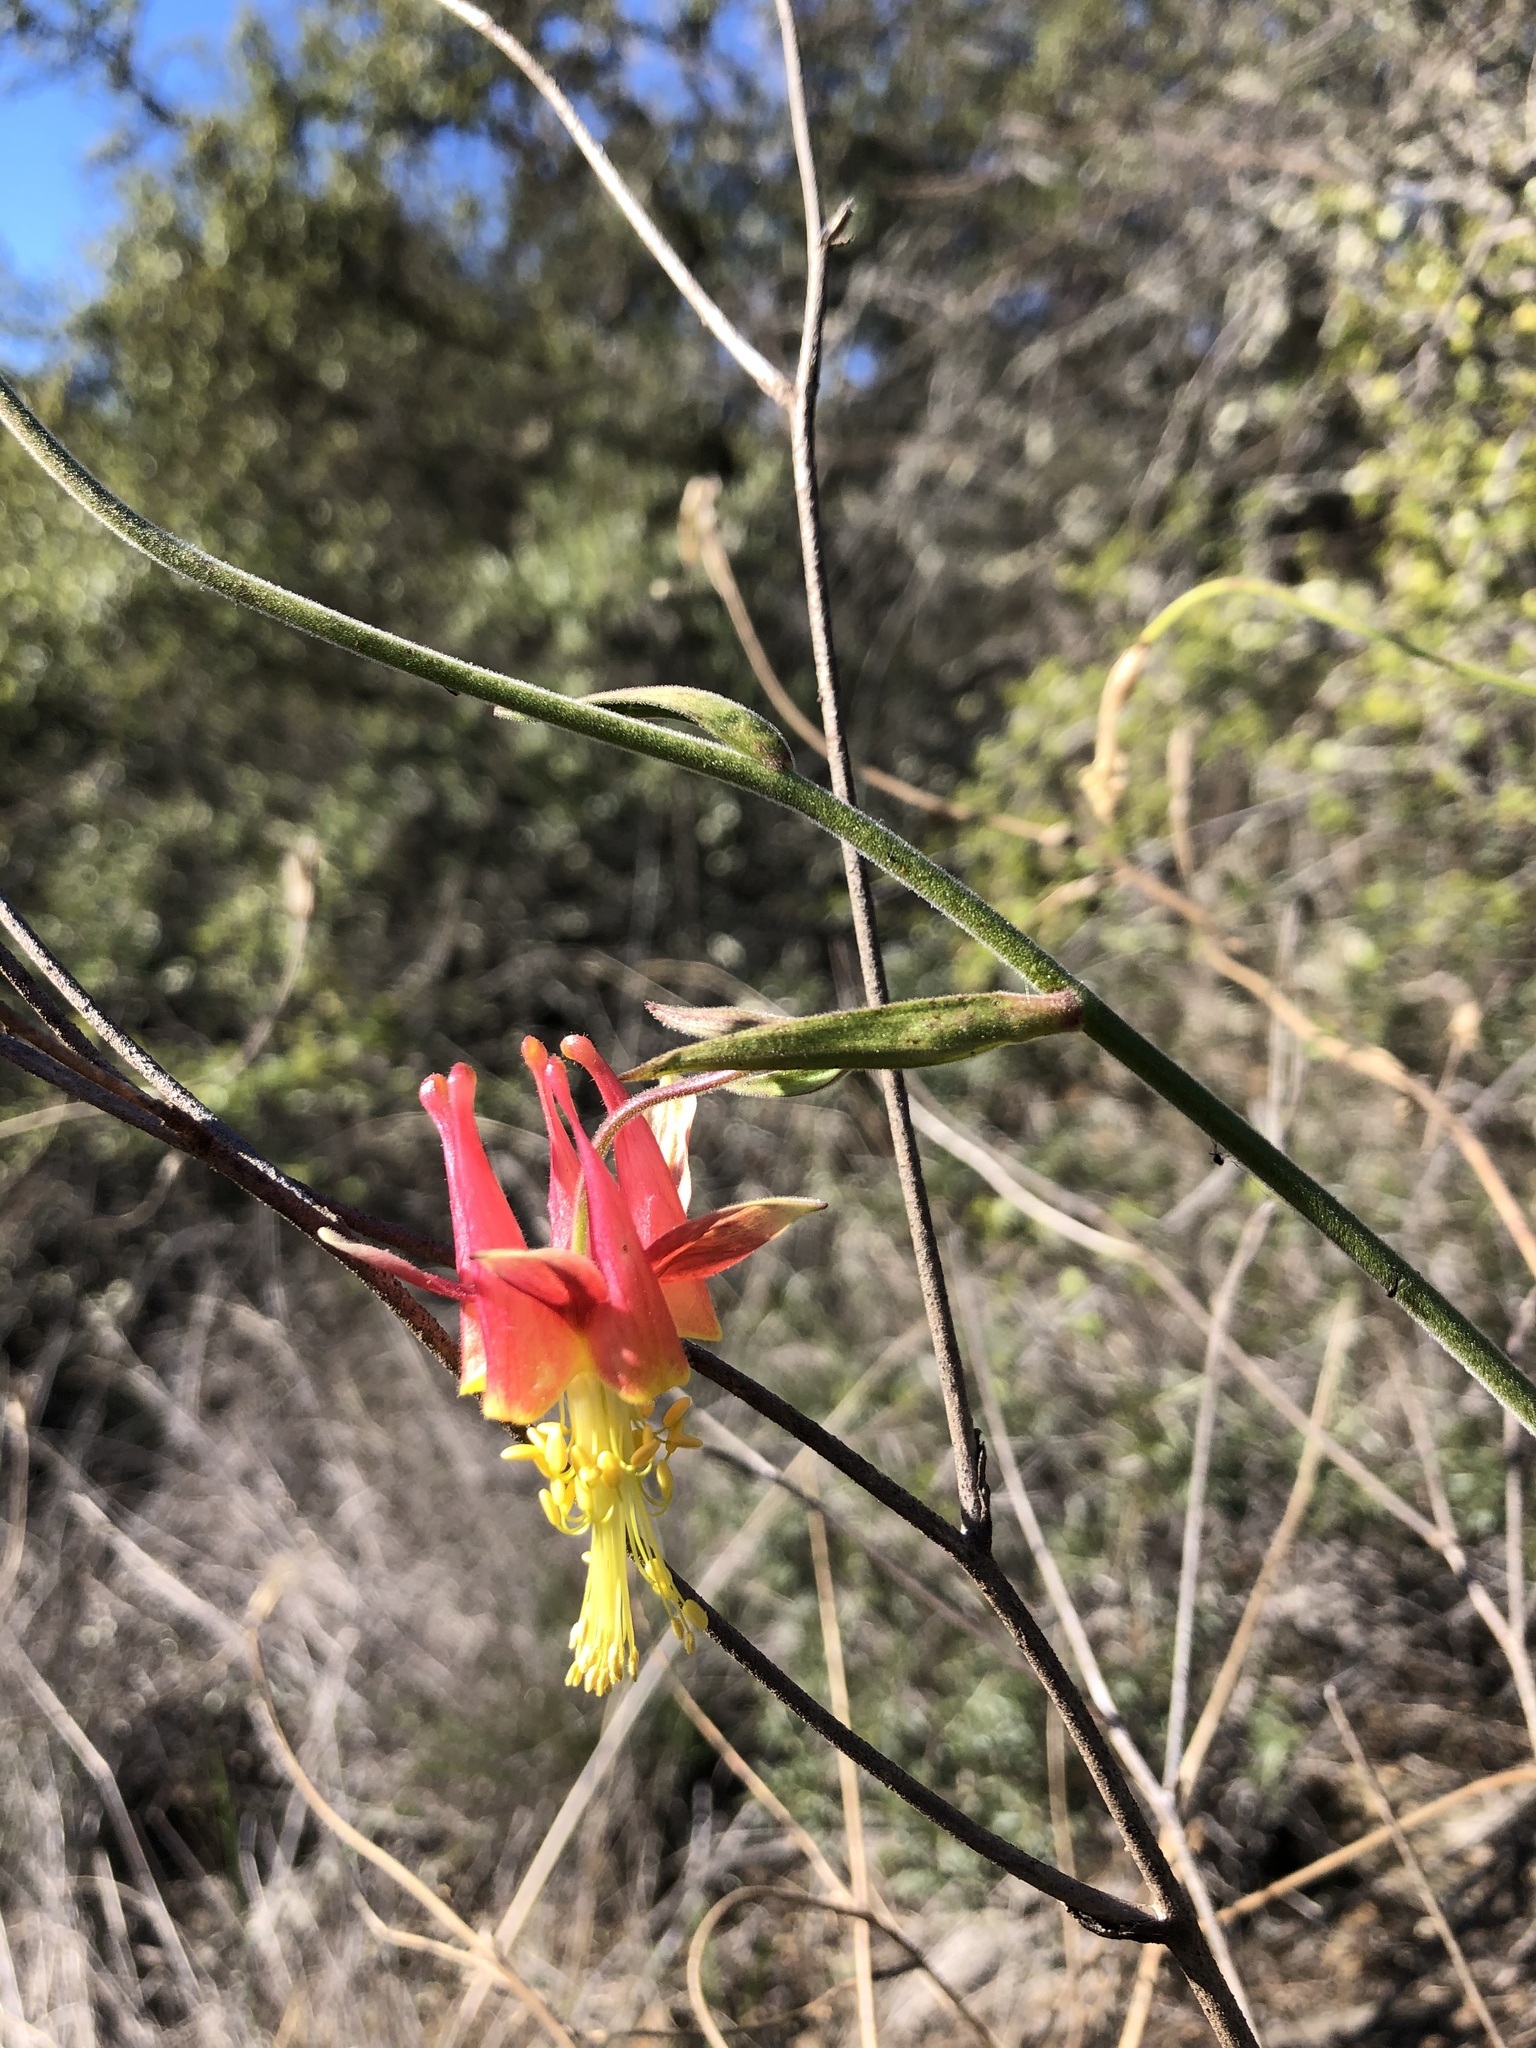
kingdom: Plantae
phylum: Tracheophyta
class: Magnoliopsida
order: Ranunculales
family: Ranunculaceae
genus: Aquilegia
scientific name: Aquilegia eximia
